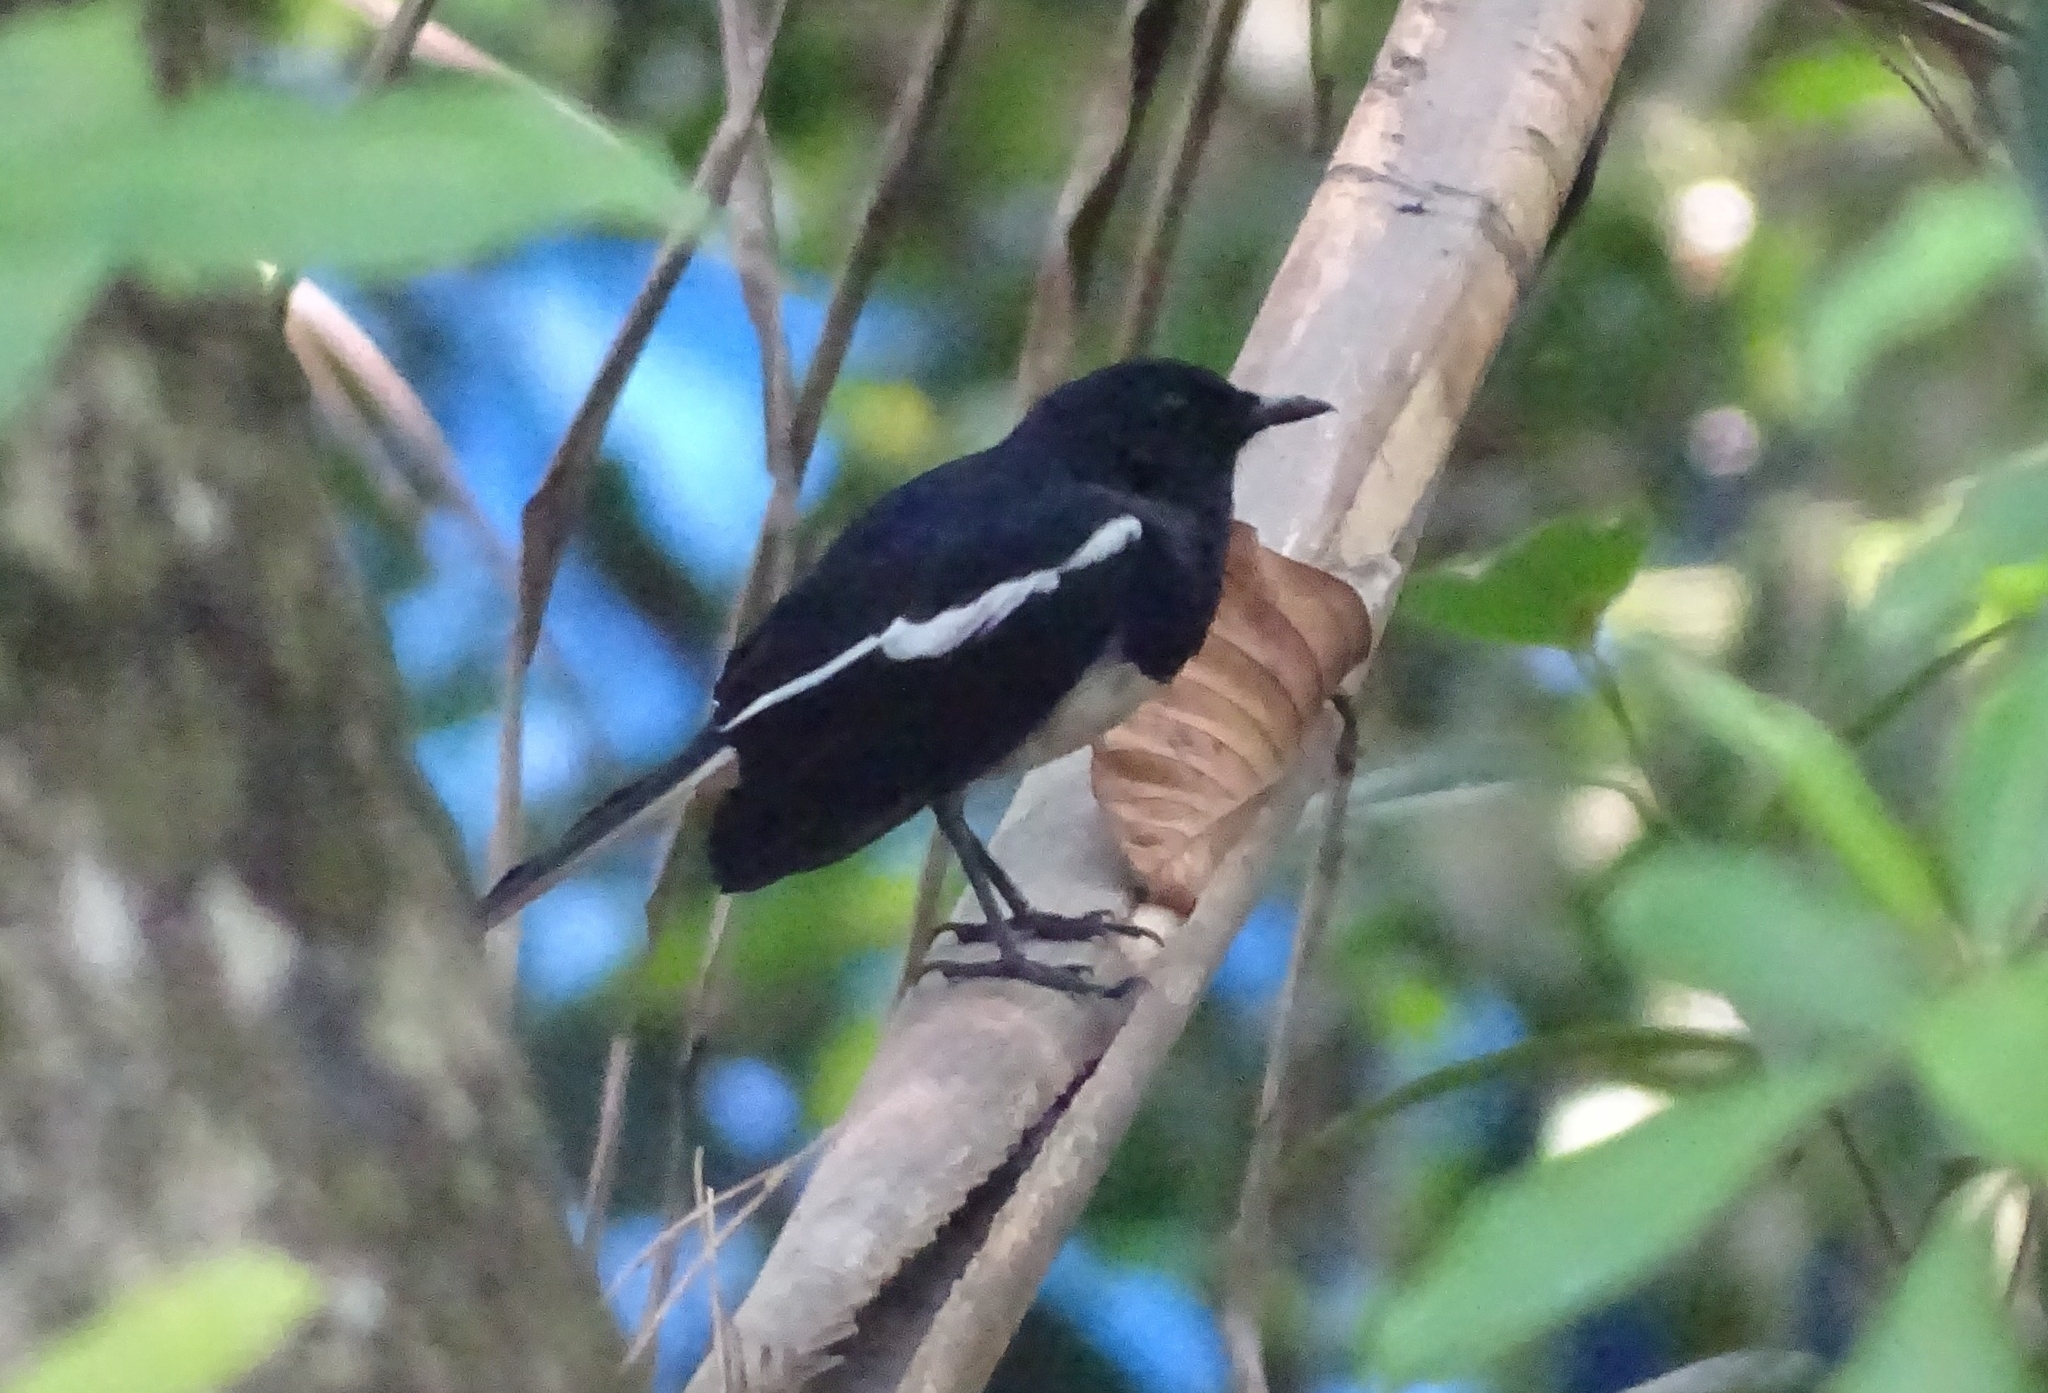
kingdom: Animalia
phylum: Chordata
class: Aves
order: Passeriformes
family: Muscicapidae
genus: Copsychus
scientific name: Copsychus saularis
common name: Oriental magpie-robin
